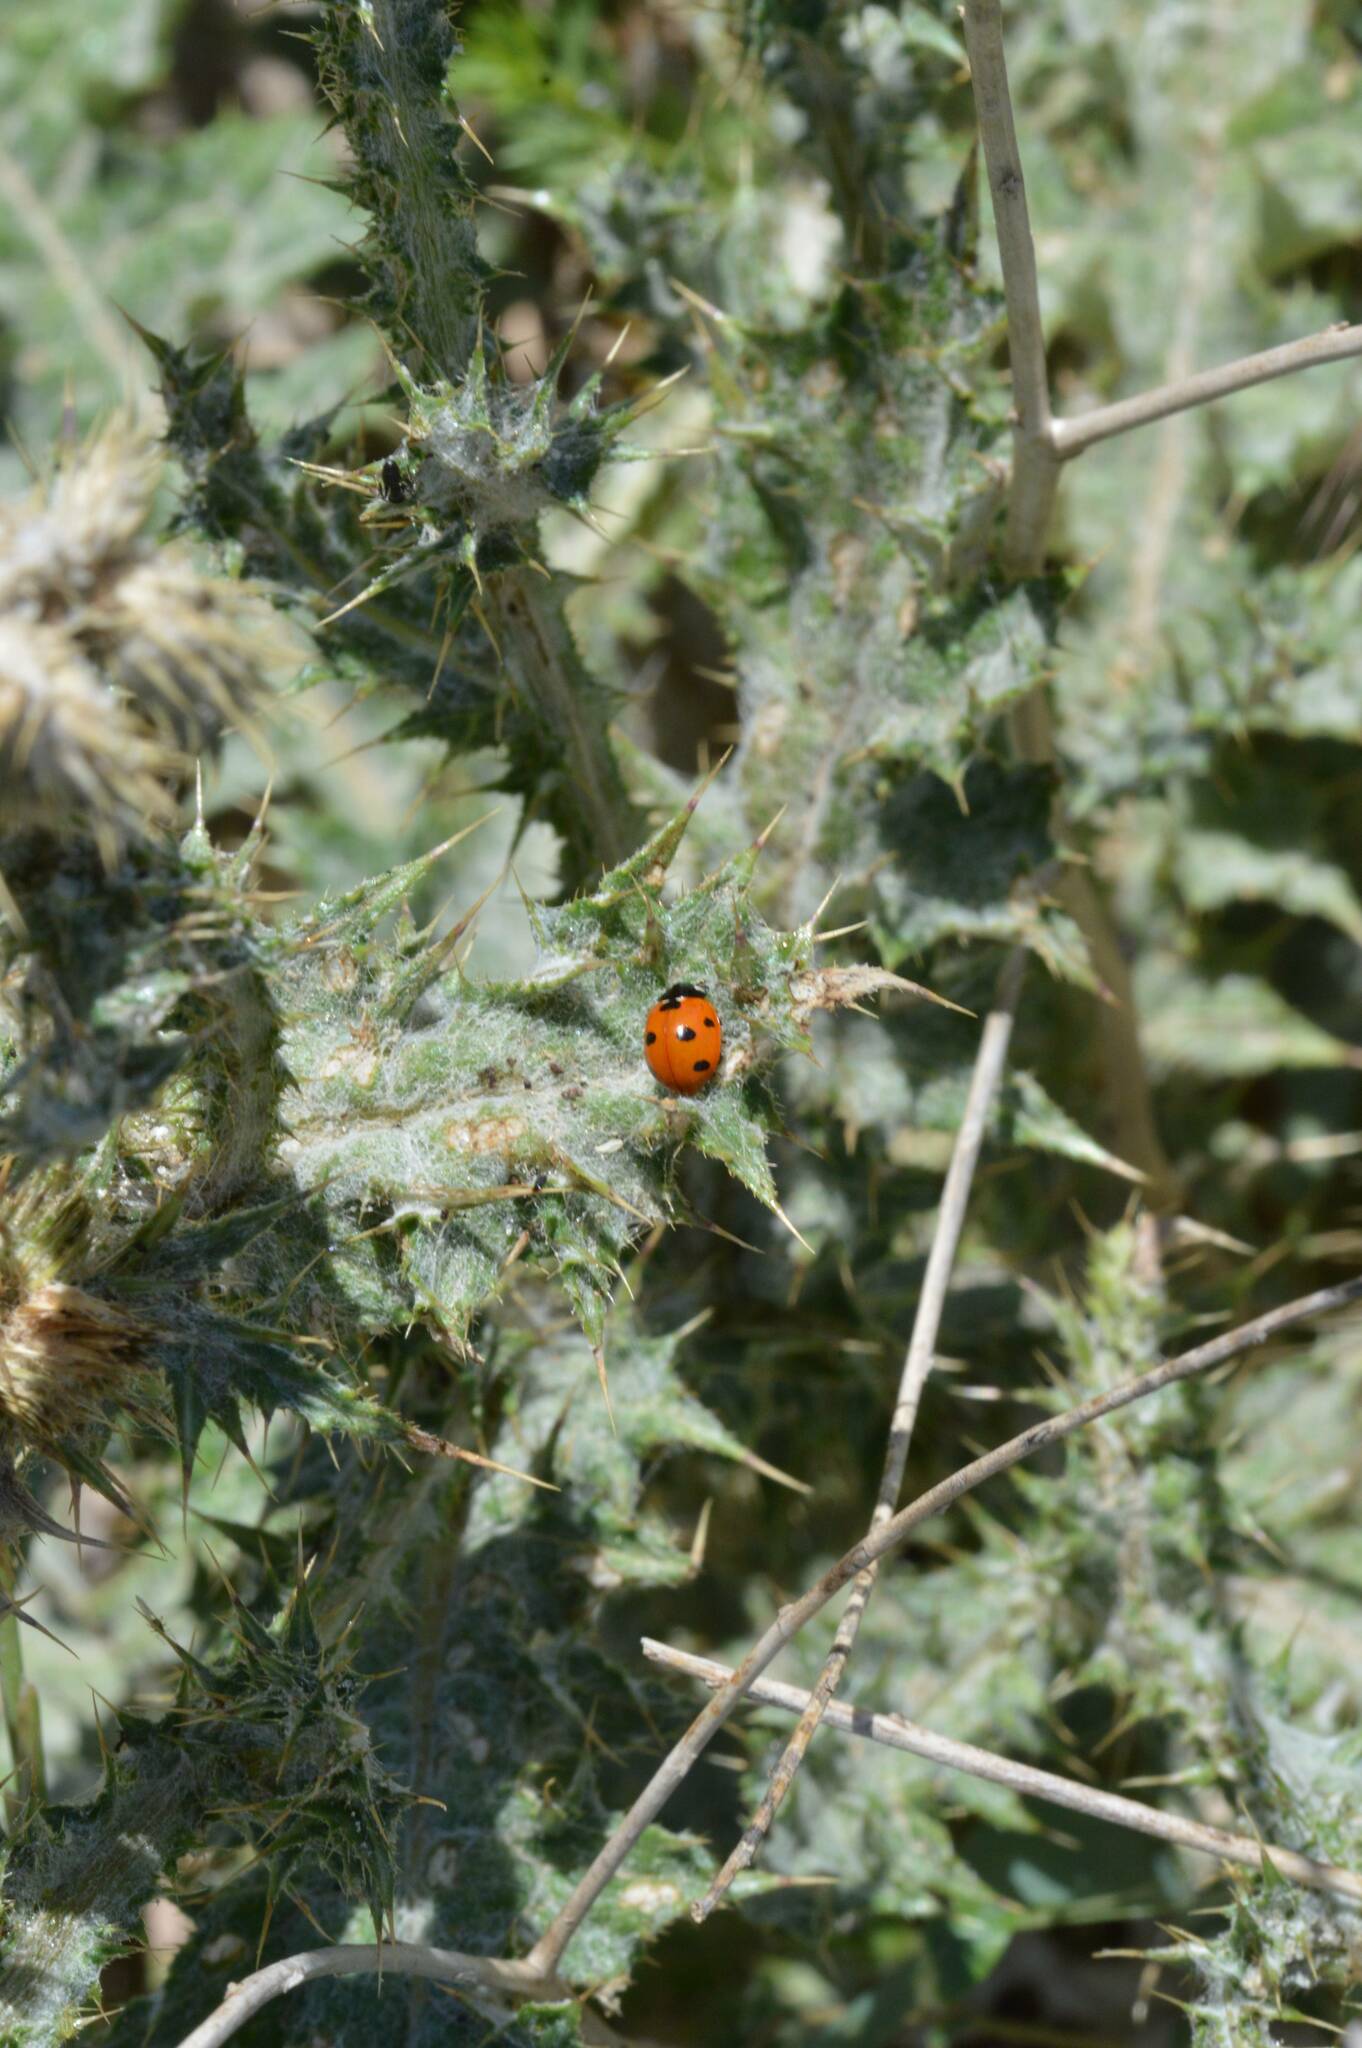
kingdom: Animalia
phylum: Arthropoda
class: Insecta
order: Coleoptera
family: Coccinellidae
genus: Coccinella
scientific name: Coccinella algerica
